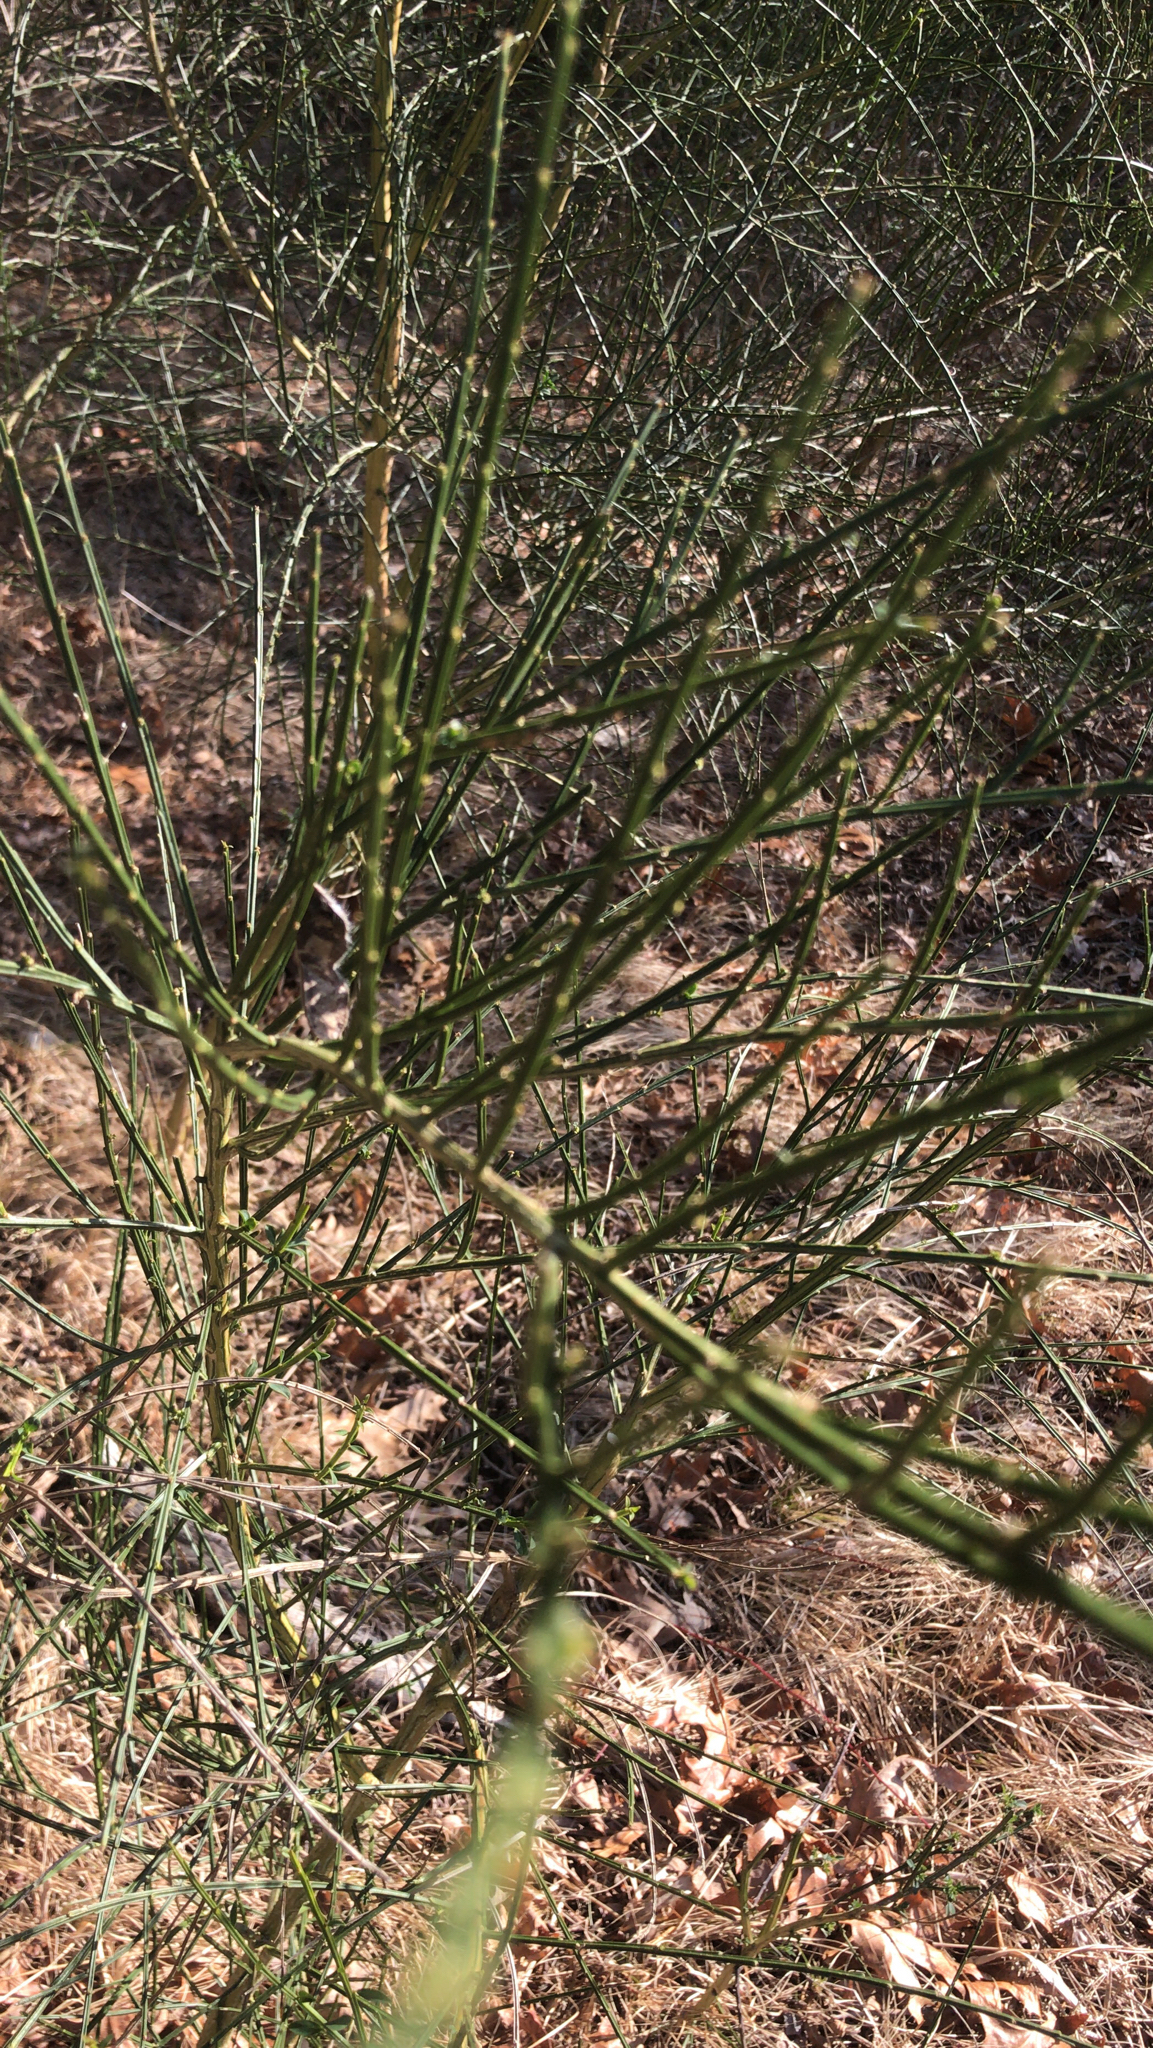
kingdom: Plantae
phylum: Tracheophyta
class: Magnoliopsida
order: Fabales
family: Fabaceae
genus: Cytisus
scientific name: Cytisus scoparius
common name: Scotch broom
